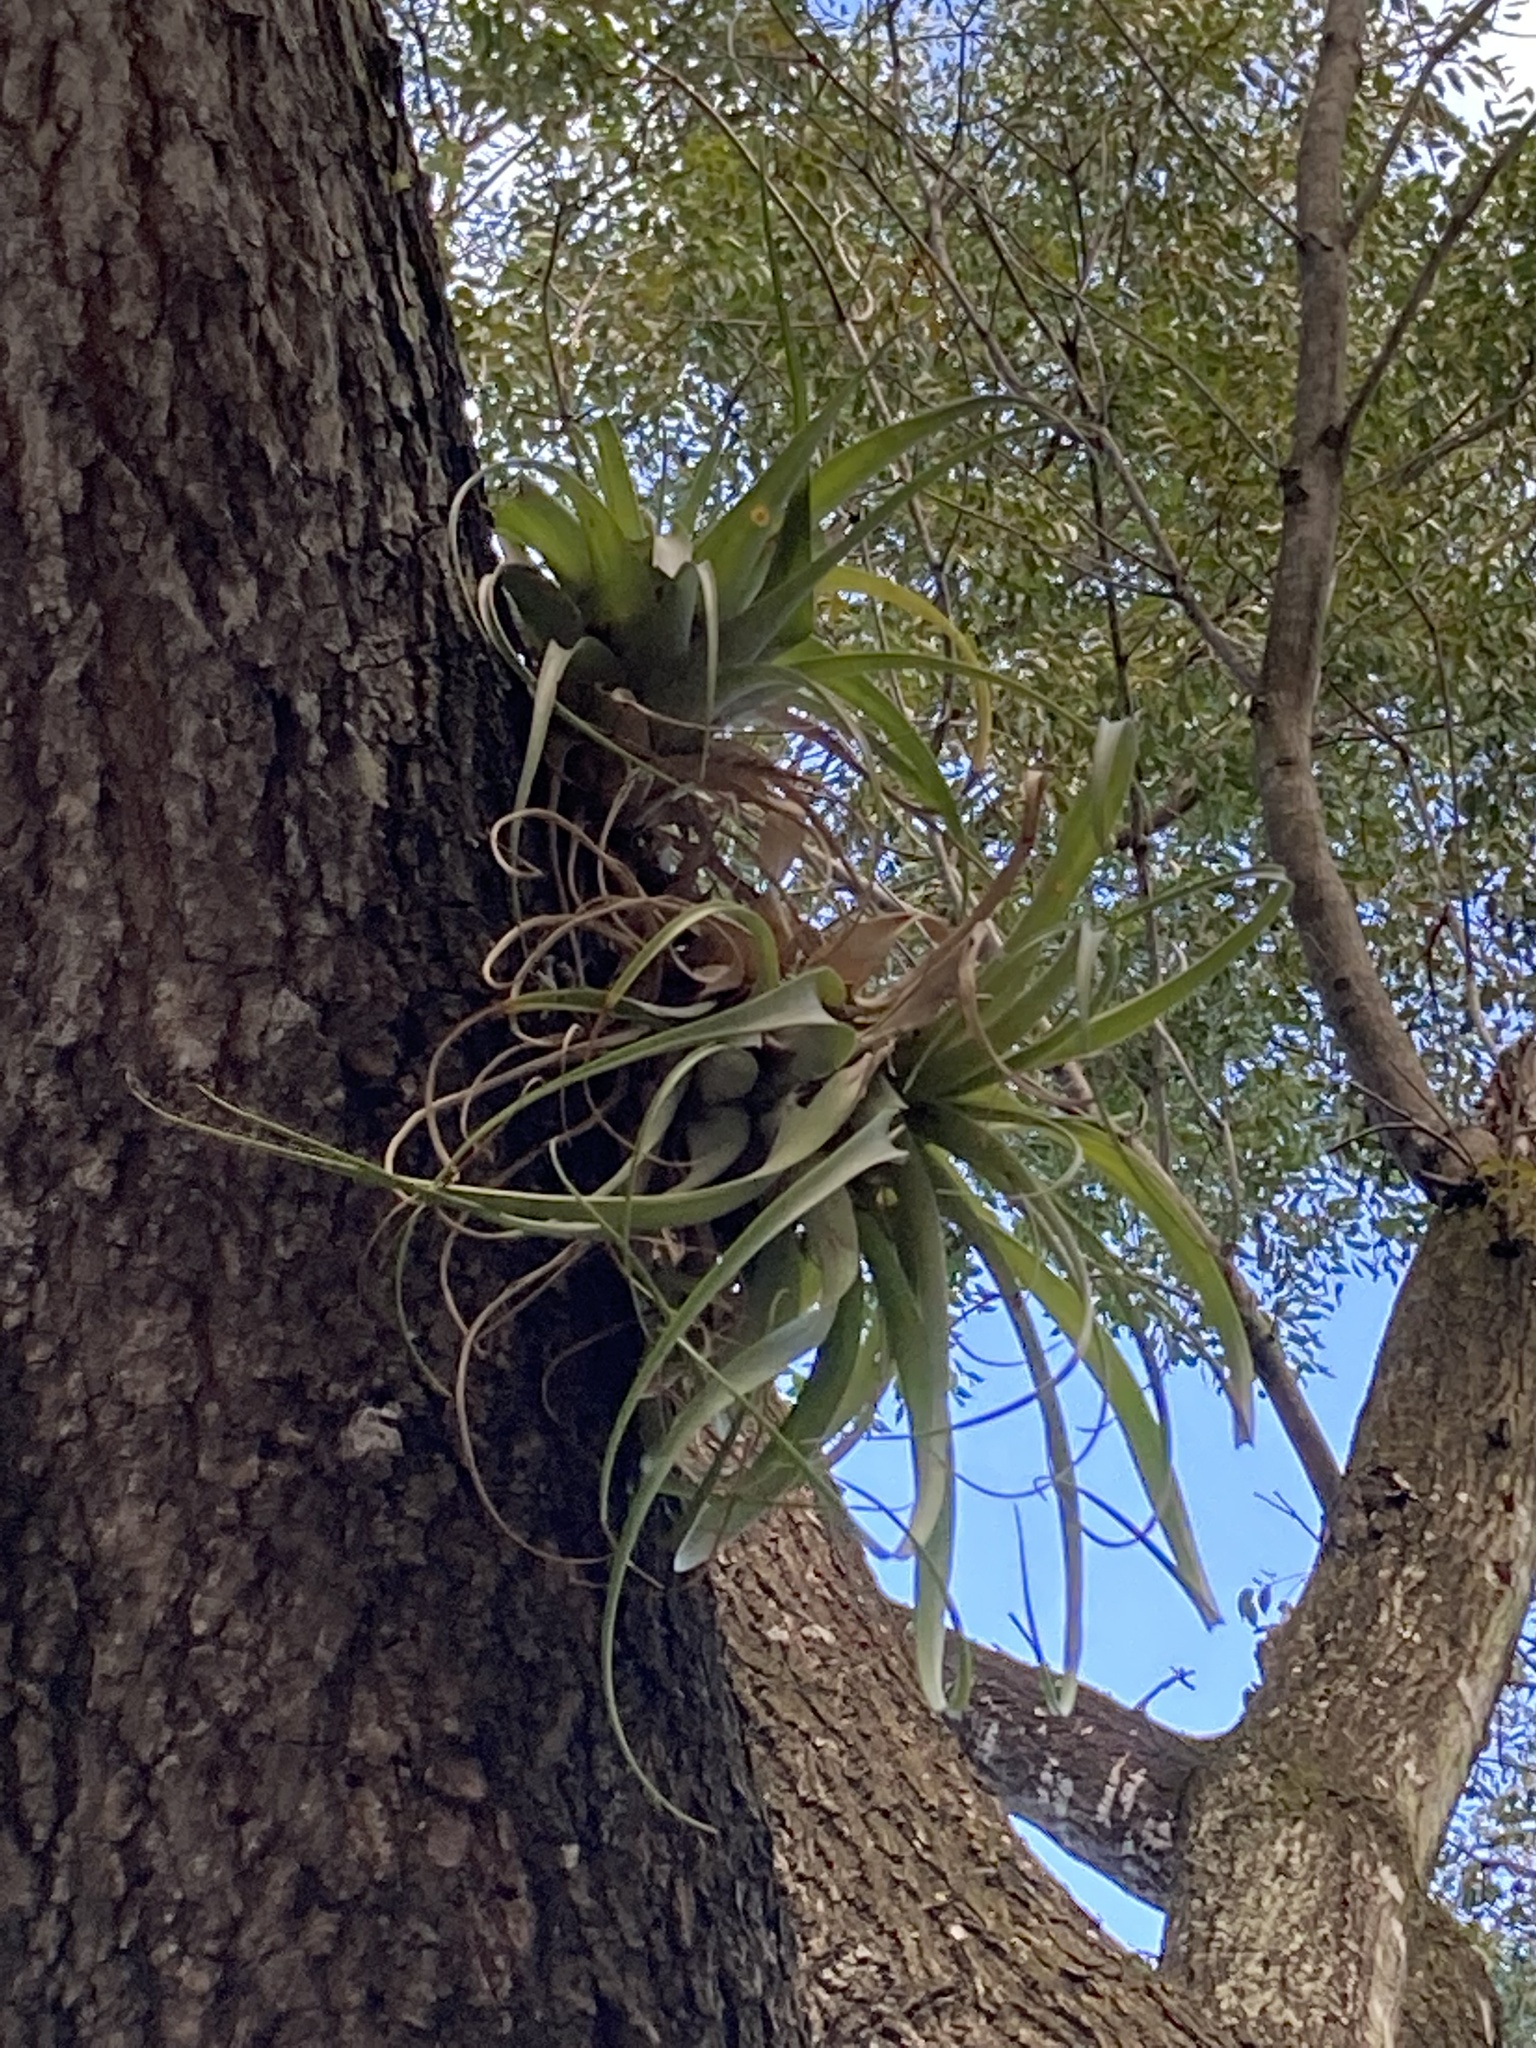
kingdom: Plantae
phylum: Tracheophyta
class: Liliopsida
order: Poales
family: Bromeliaceae
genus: Tillandsia
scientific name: Tillandsia utriculata
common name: Wild pine
